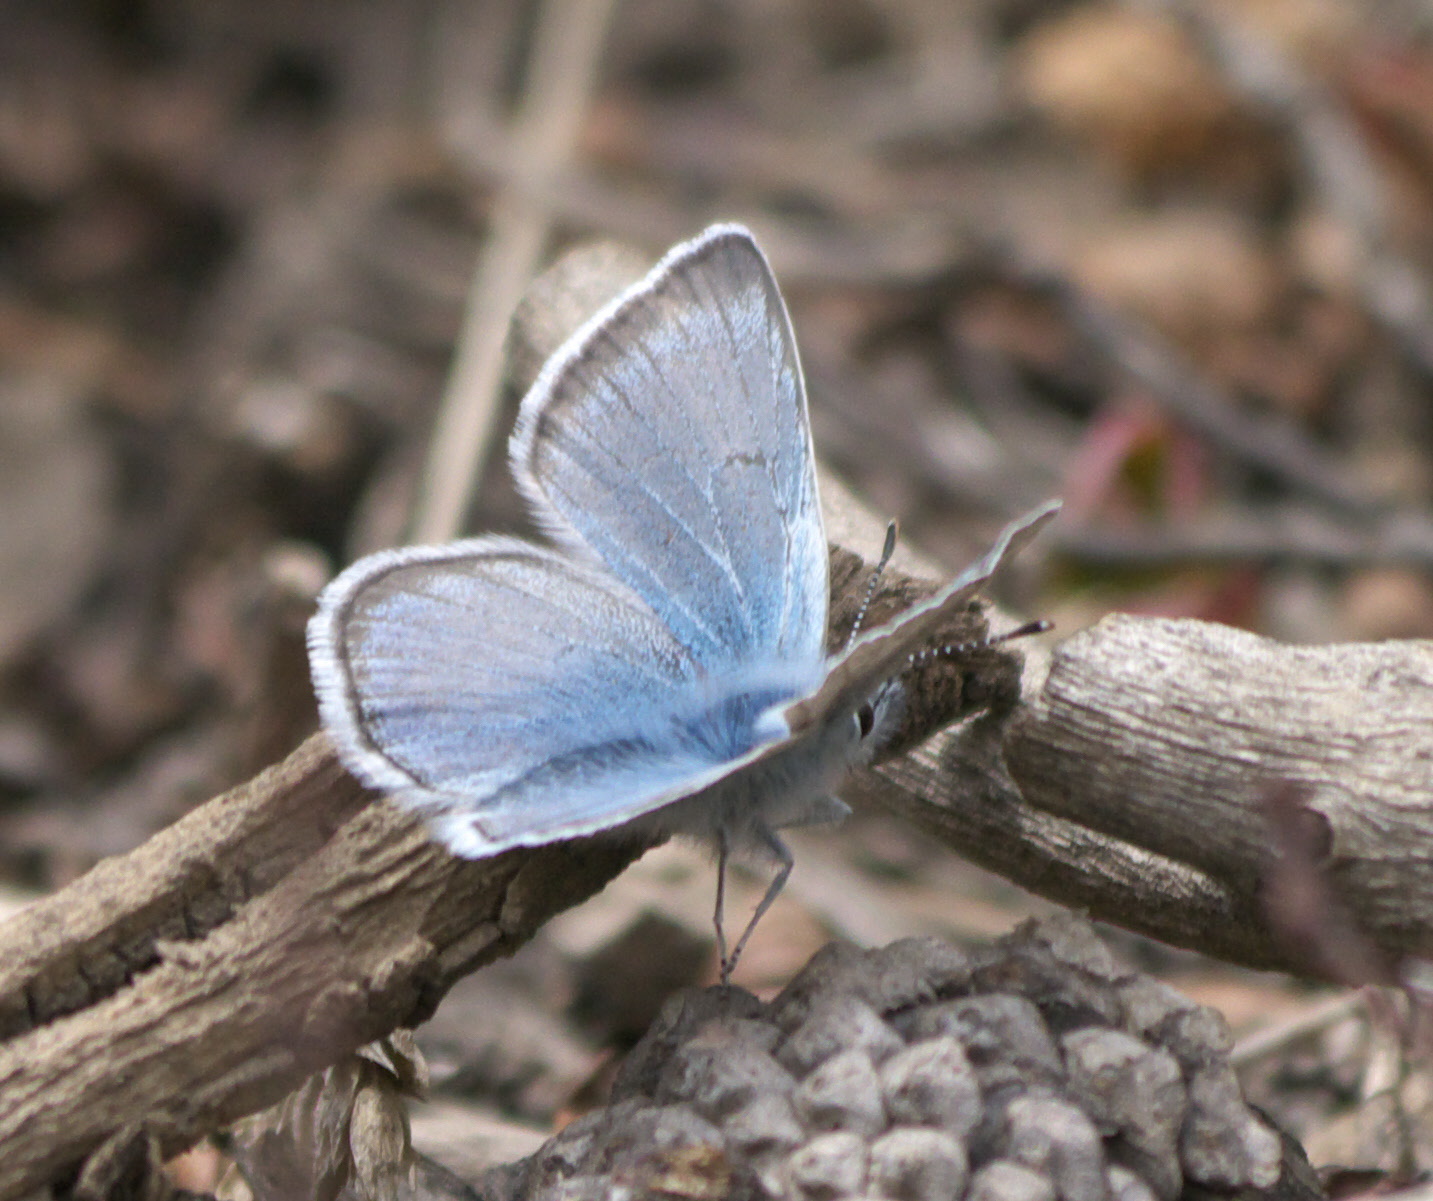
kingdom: Animalia
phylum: Arthropoda
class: Insecta
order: Lepidoptera
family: Lycaenidae
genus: Icaricia
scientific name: Icaricia saepiolus
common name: Greenish blue
